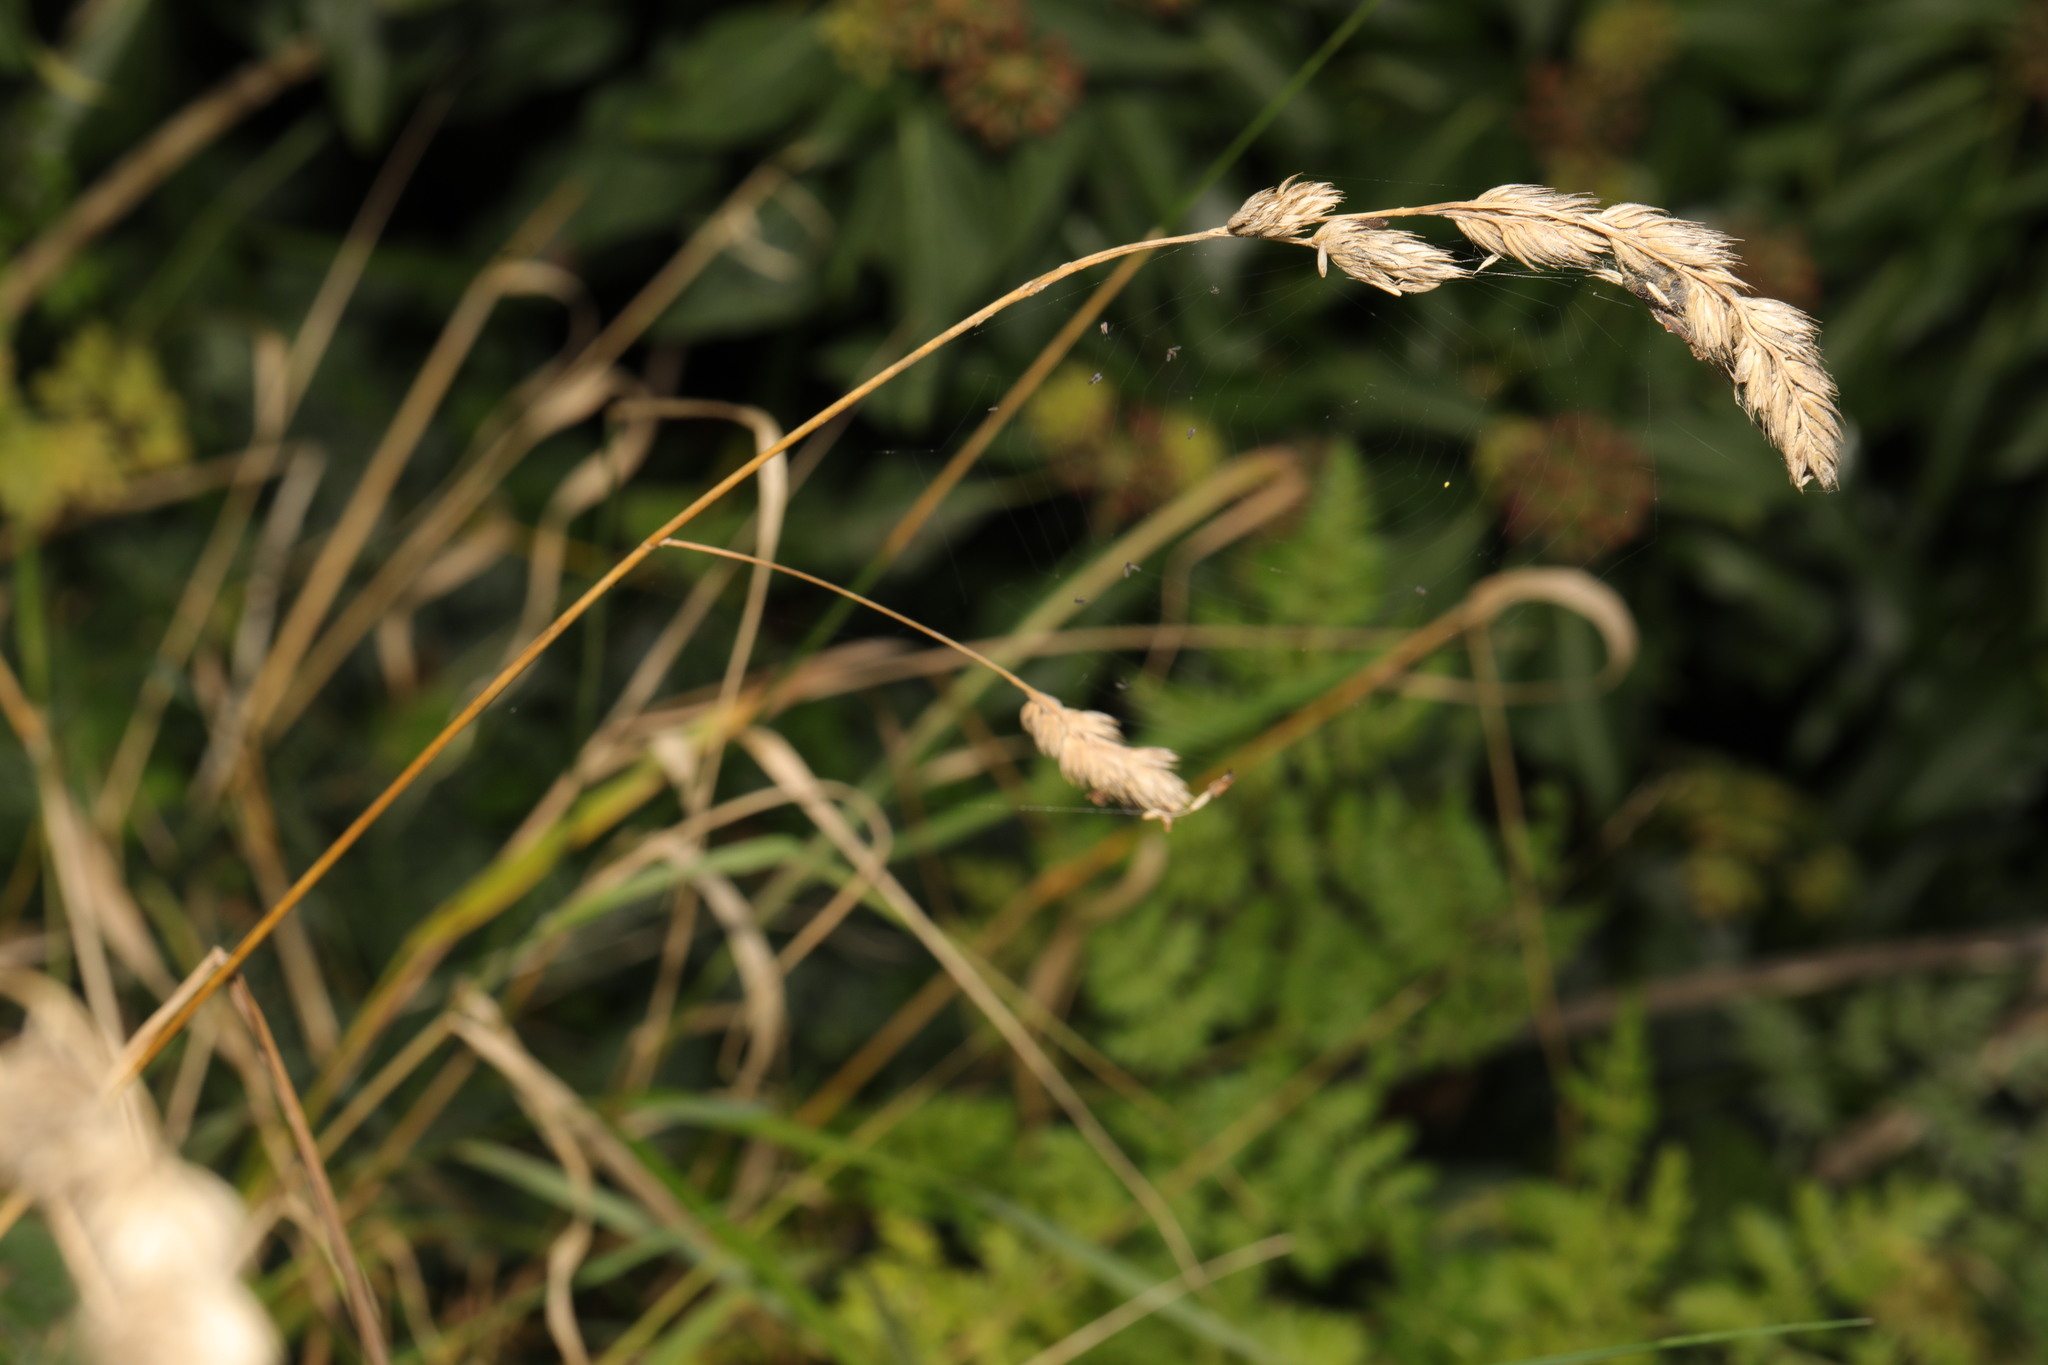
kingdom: Plantae
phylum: Tracheophyta
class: Liliopsida
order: Poales
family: Poaceae
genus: Dactylis
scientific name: Dactylis glomerata
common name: Orchardgrass
